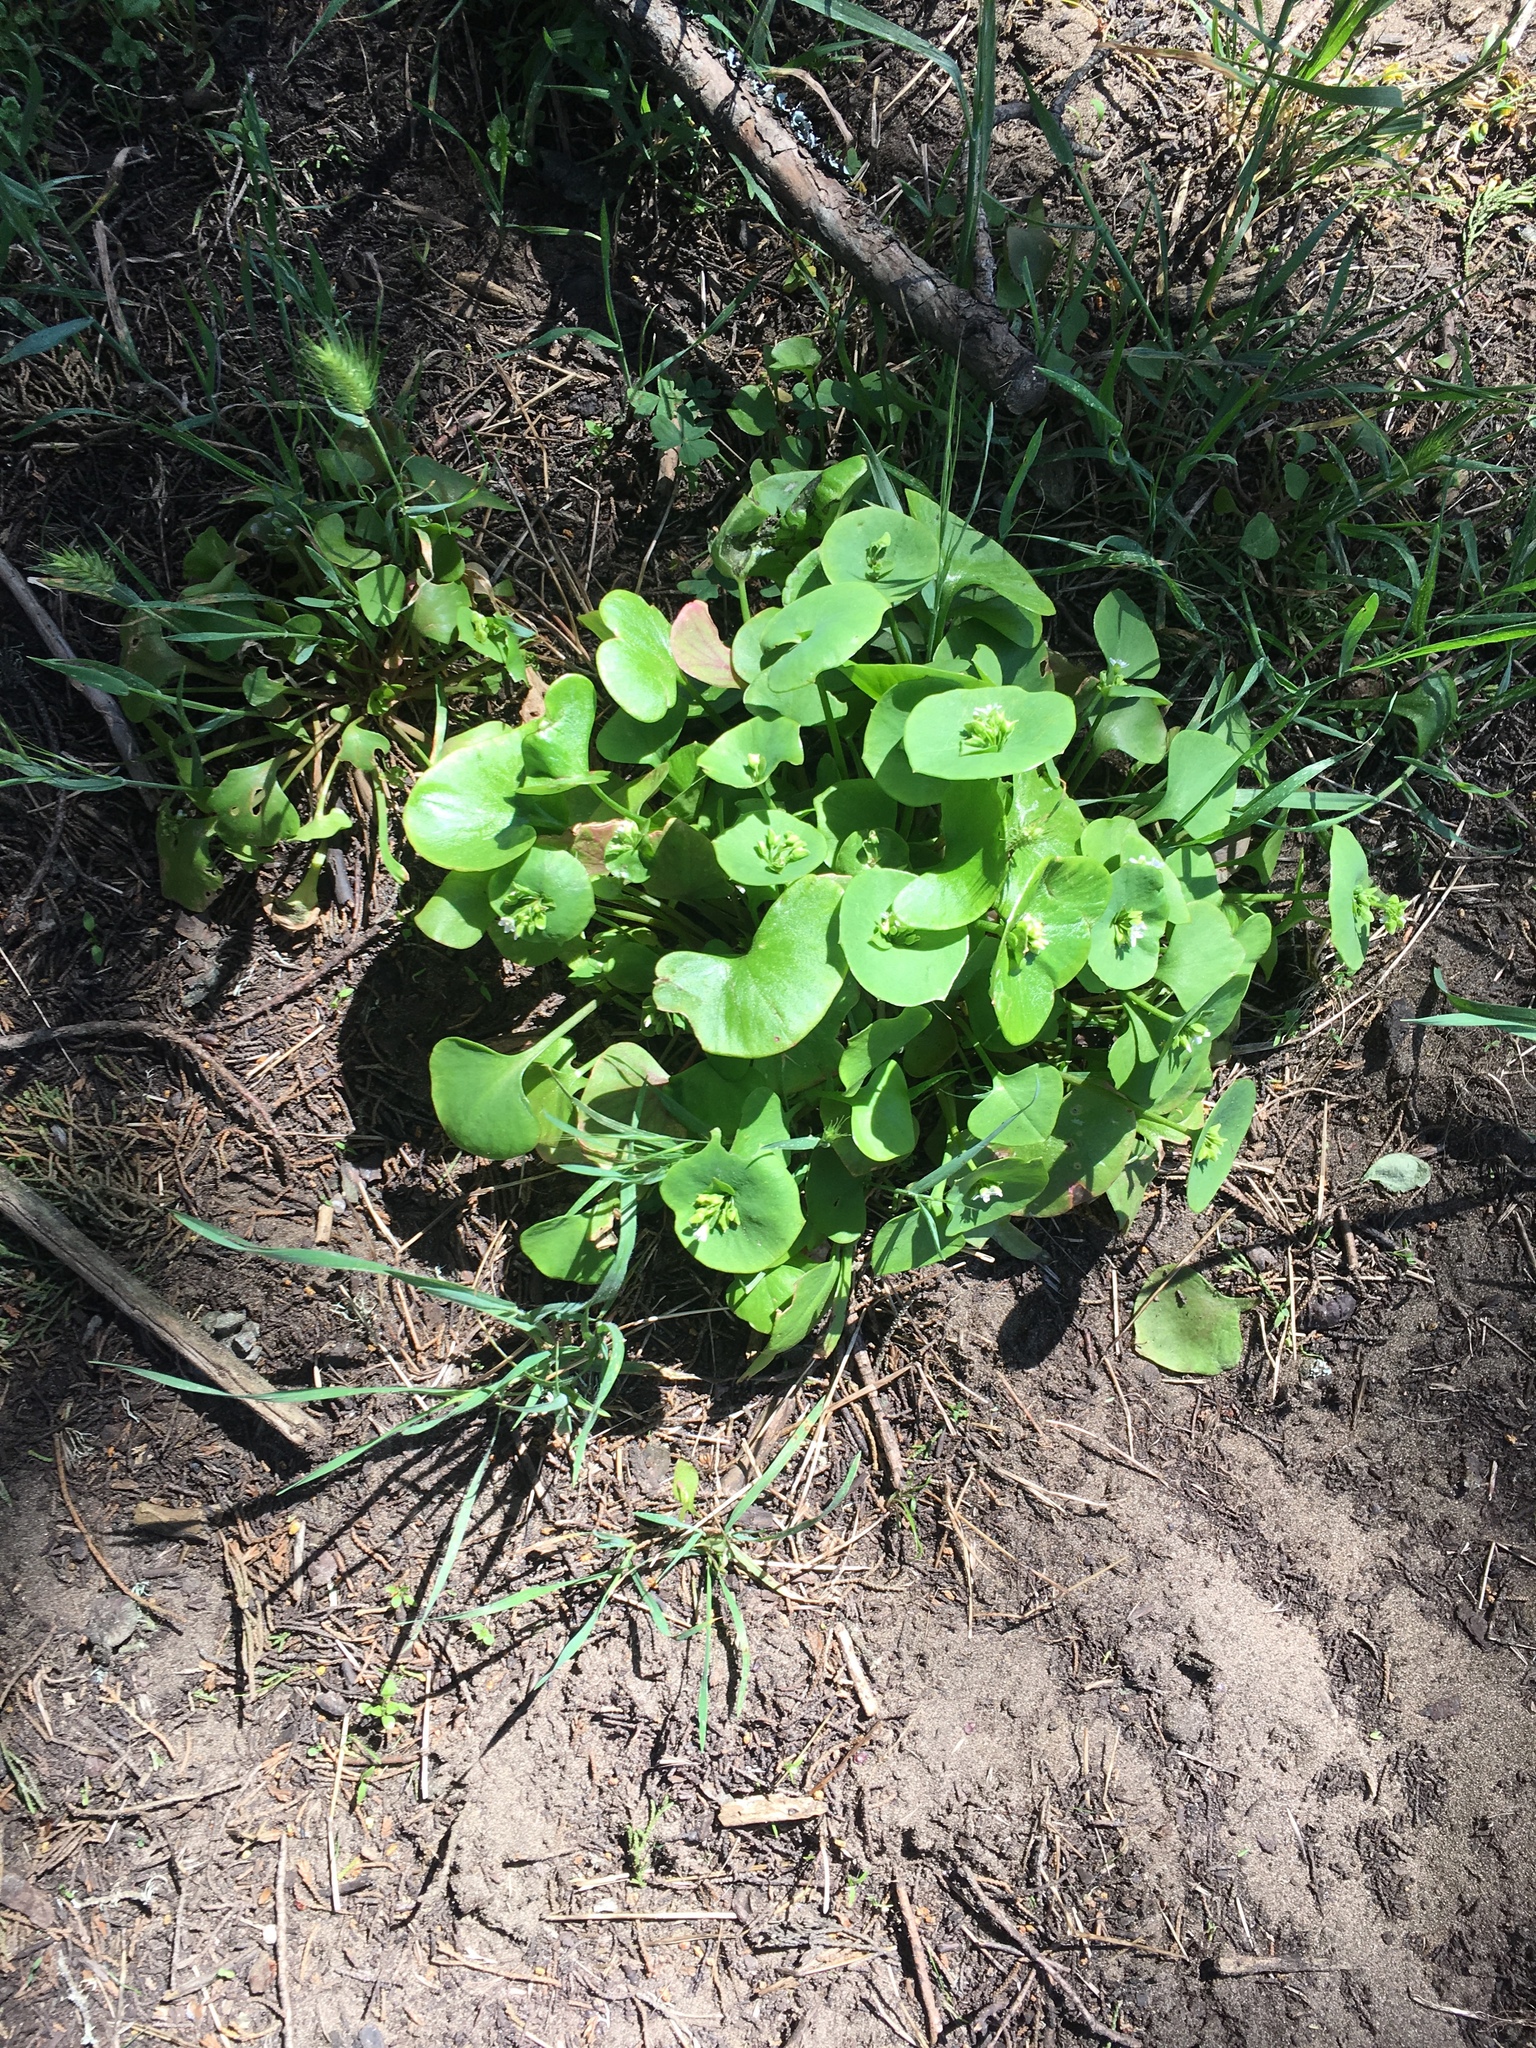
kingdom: Plantae
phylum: Tracheophyta
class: Magnoliopsida
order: Caryophyllales
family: Montiaceae
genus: Claytonia
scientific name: Claytonia perfoliata
